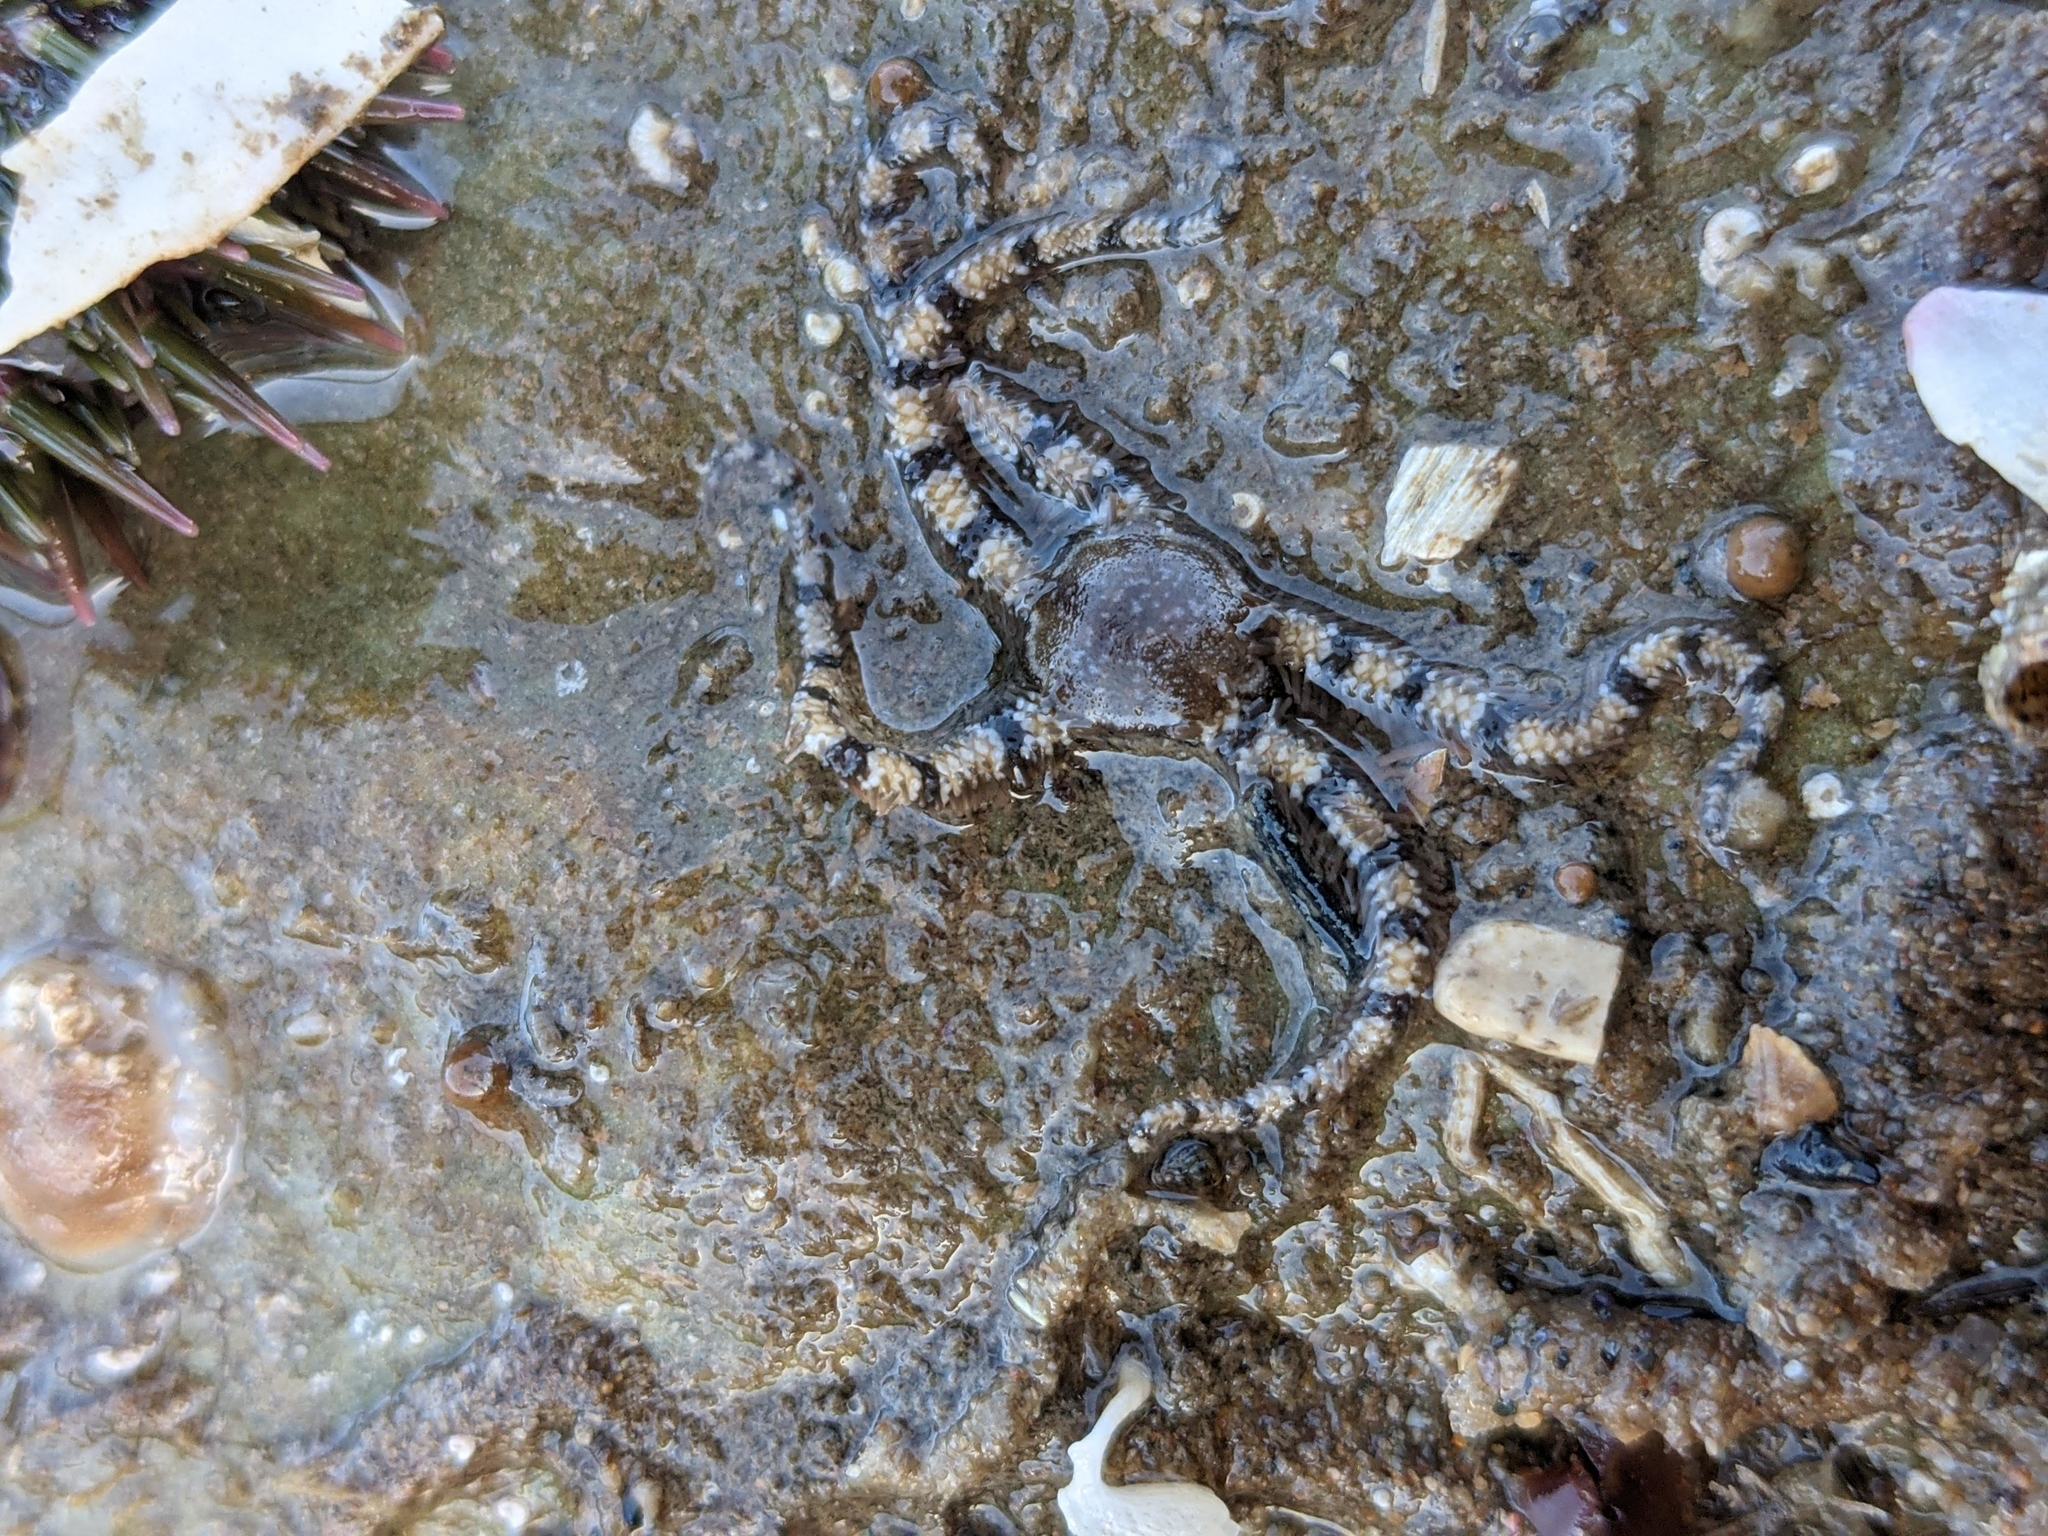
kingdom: Animalia
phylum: Echinodermata
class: Ophiuroidea
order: Amphilepidida
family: Ophionereididae
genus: Ophionereis
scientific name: Ophionereis annulata
